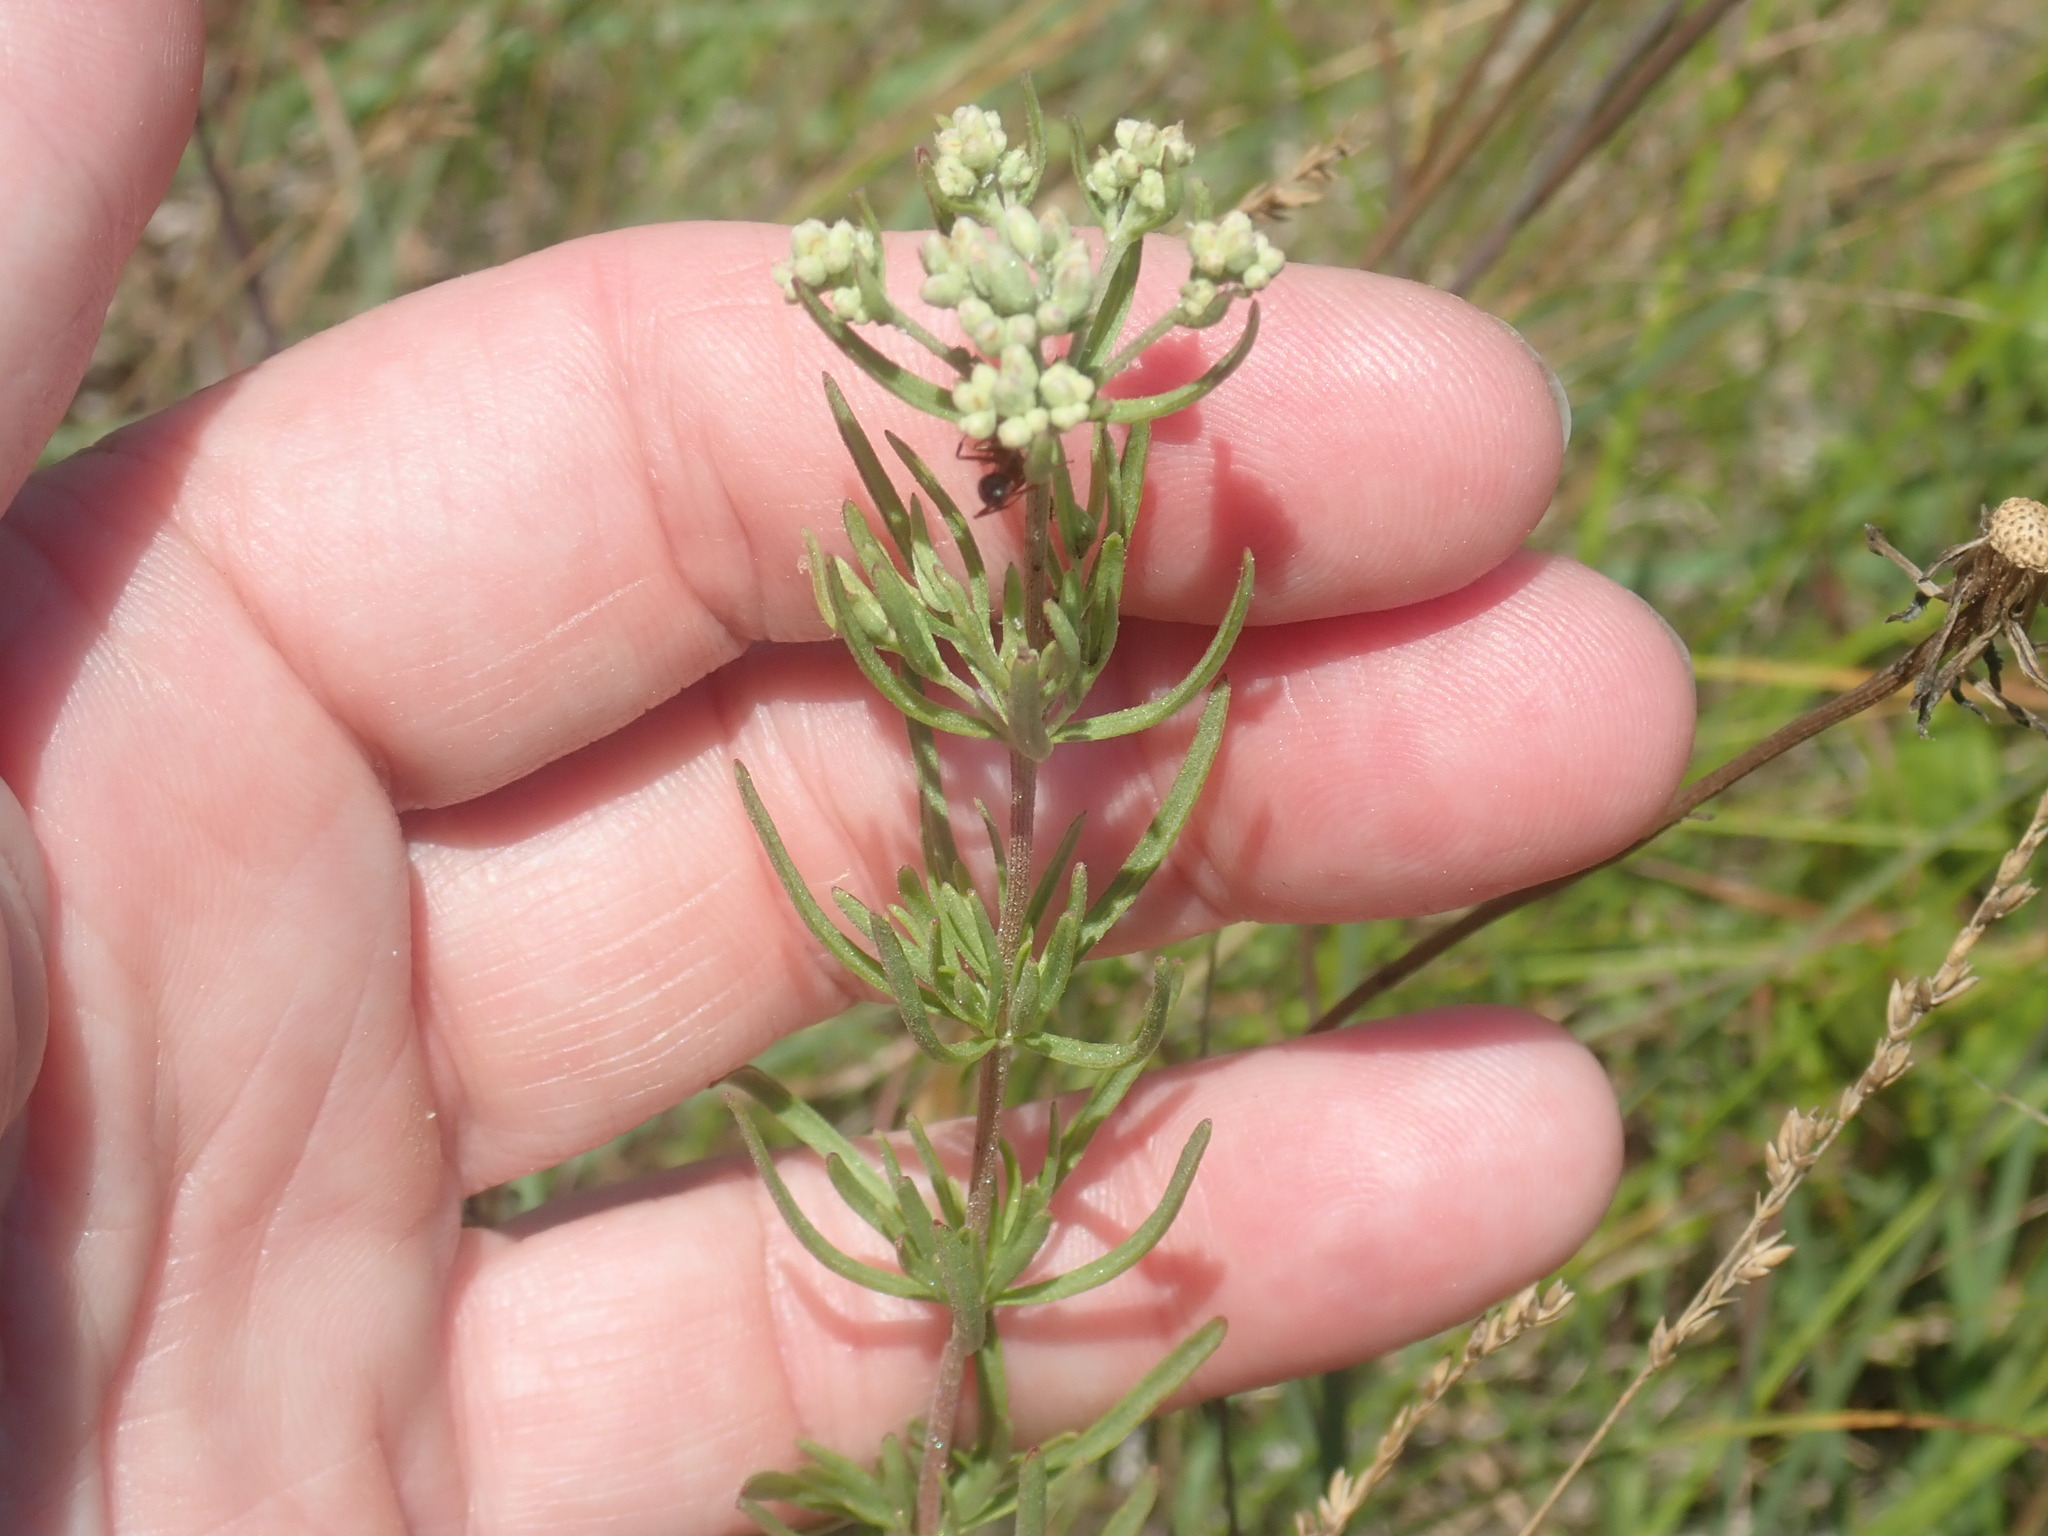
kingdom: Plantae
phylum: Tracheophyta
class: Magnoliopsida
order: Asterales
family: Asteraceae
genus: Eupatorium
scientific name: Eupatorium hyssopifolium
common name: Hyssop-leaf thoroughwort
